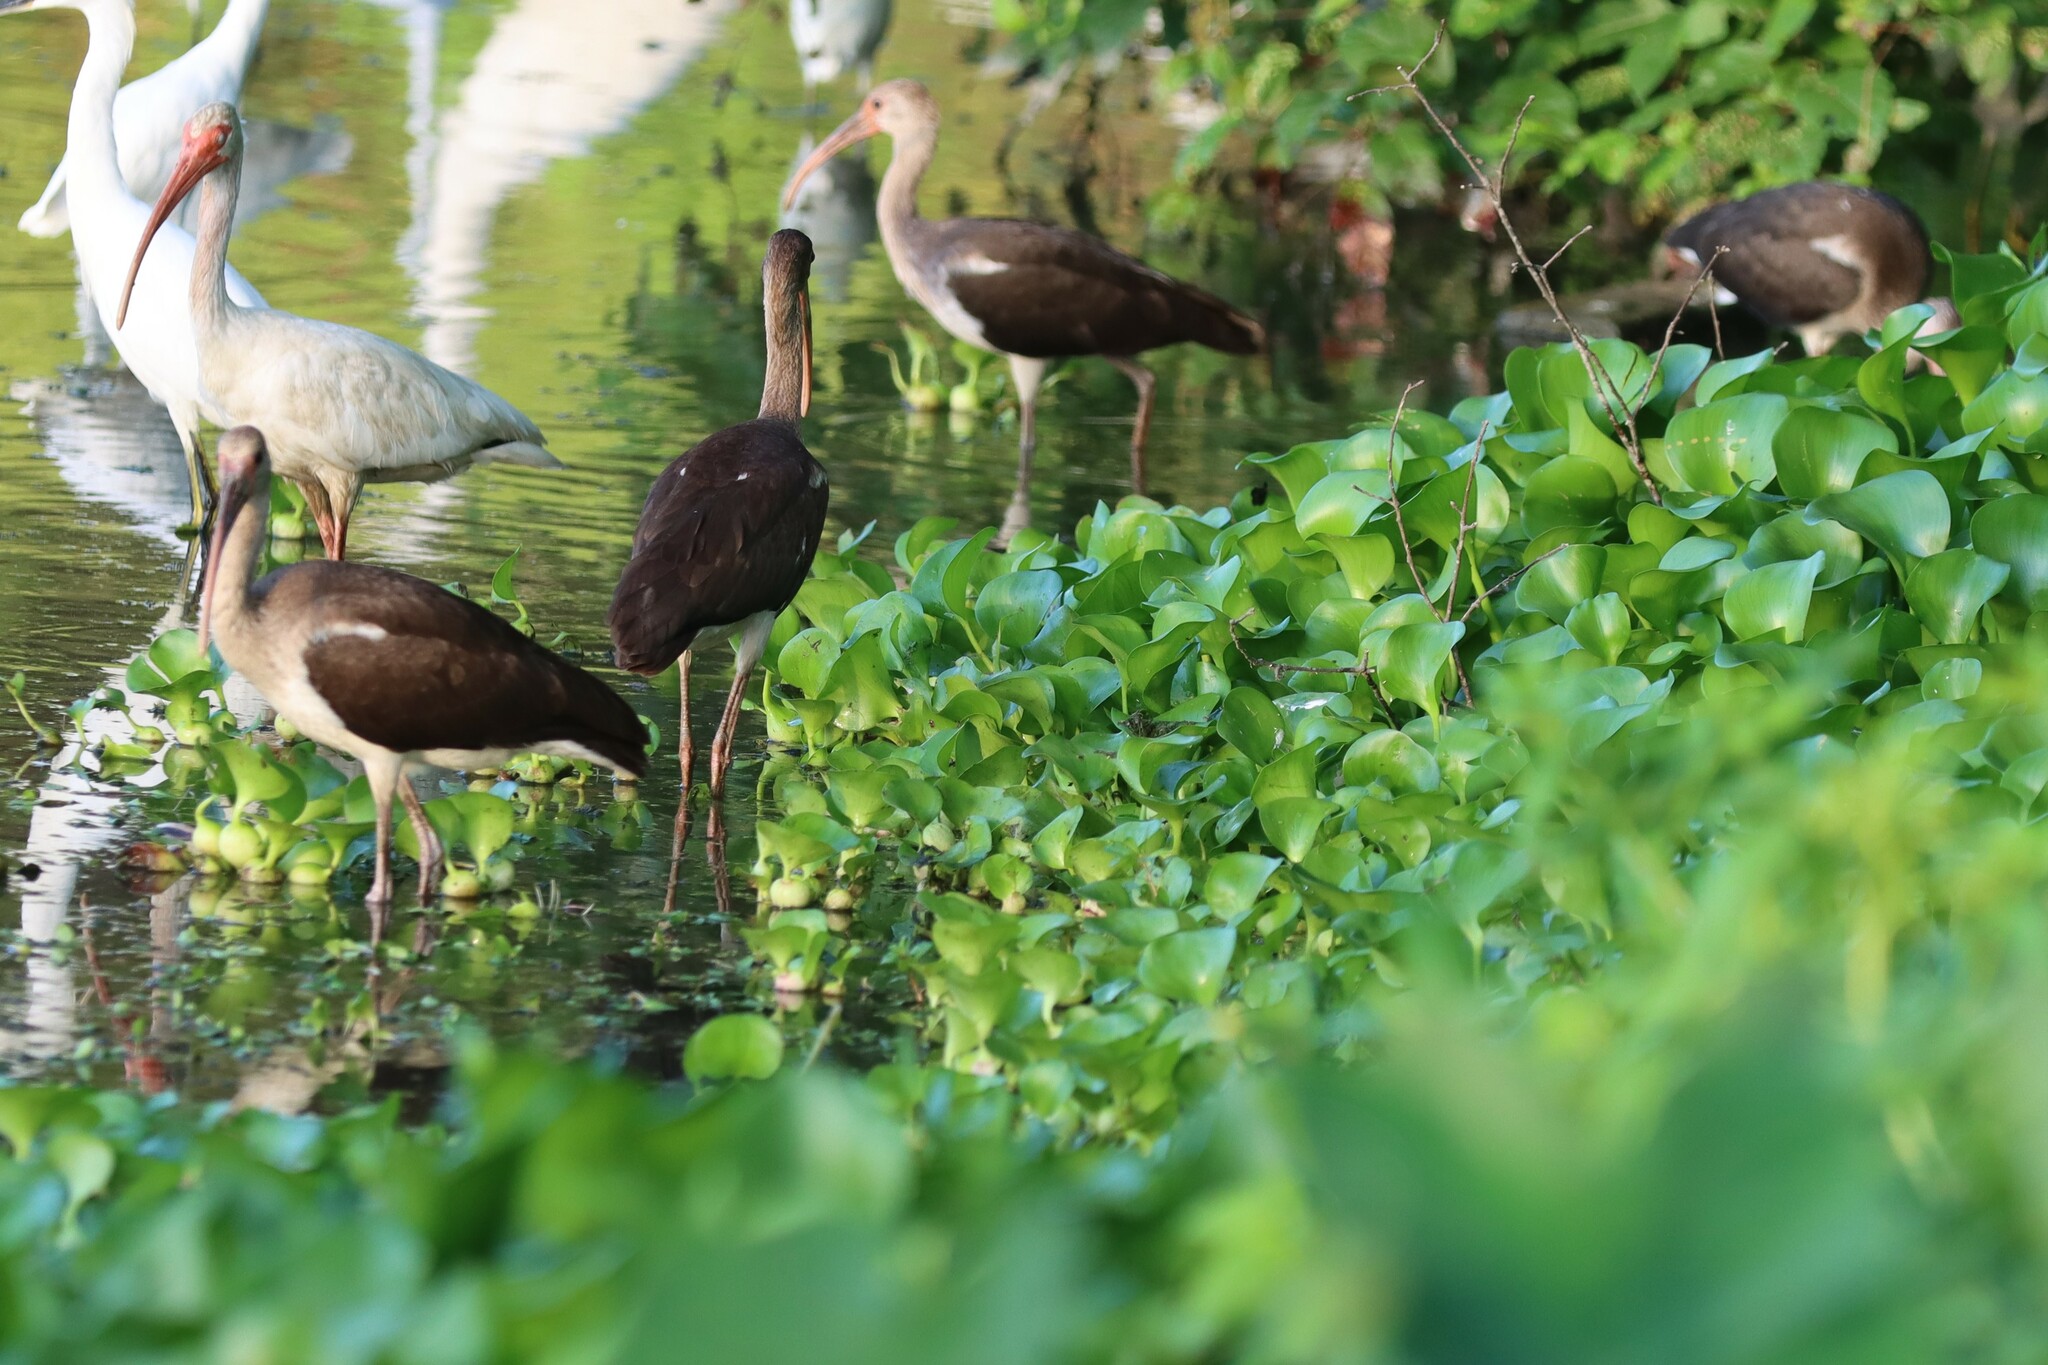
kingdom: Animalia
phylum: Chordata
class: Aves
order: Pelecaniformes
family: Threskiornithidae
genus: Eudocimus
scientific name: Eudocimus albus
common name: White ibis
